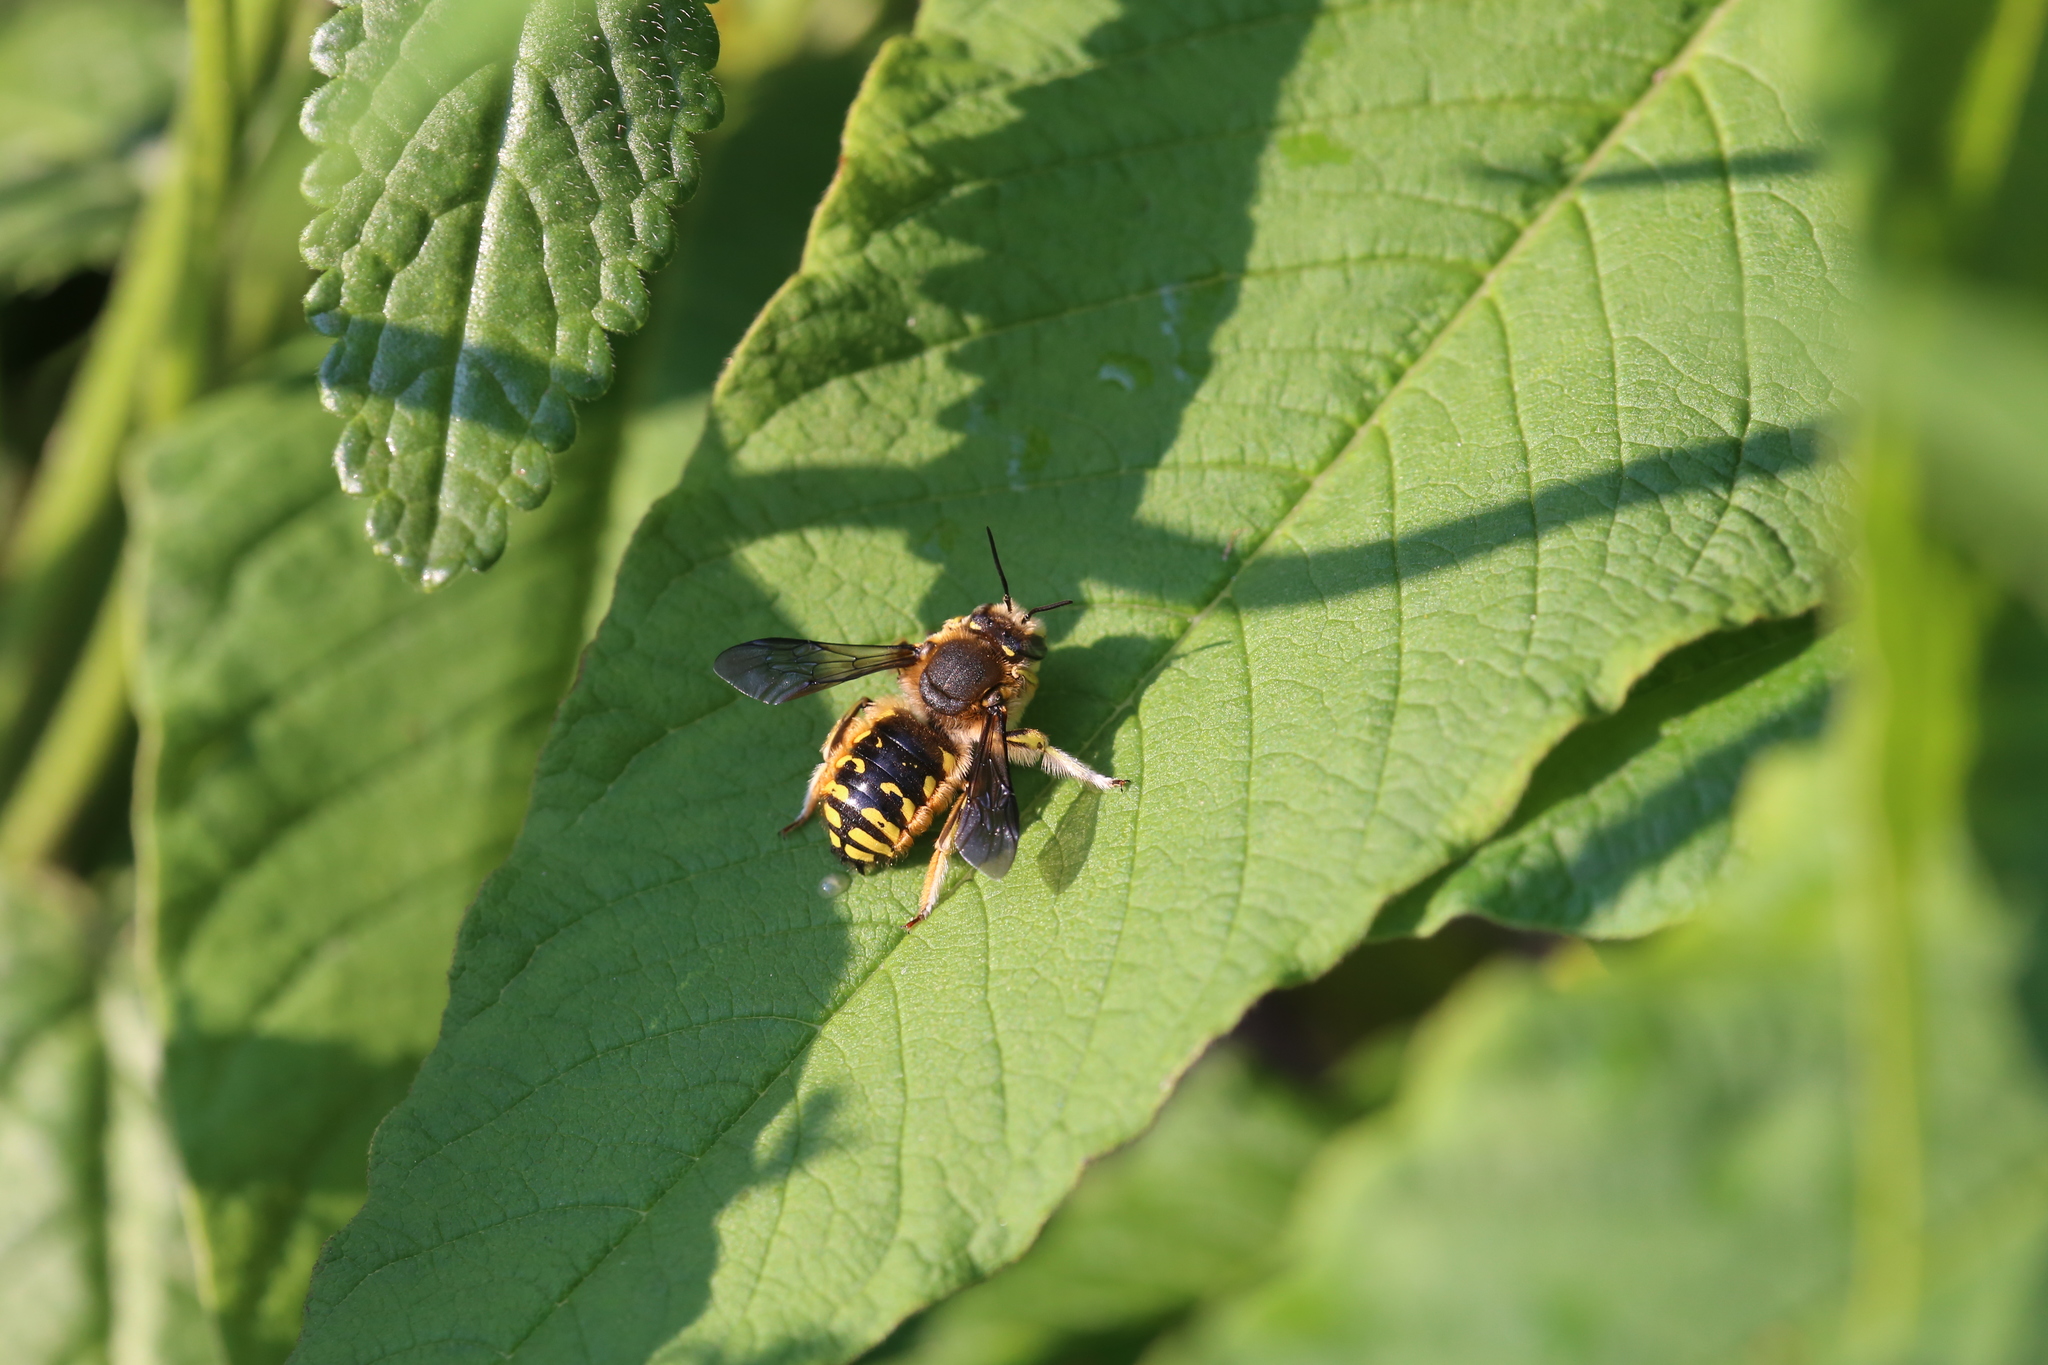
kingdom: Animalia
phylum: Arthropoda
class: Insecta
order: Hymenoptera
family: Megachilidae
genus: Anthidium
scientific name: Anthidium manicatum
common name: Wool carder bee
